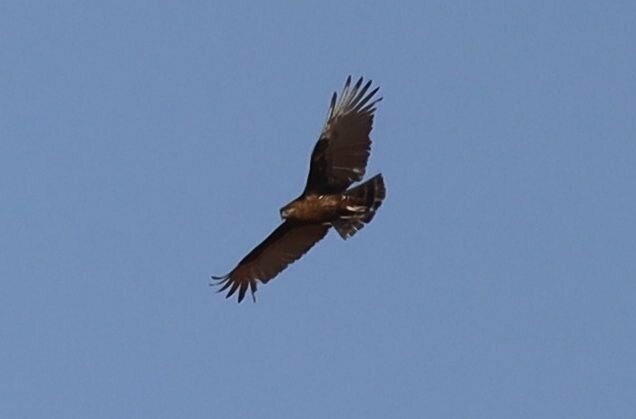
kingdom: Animalia
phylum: Chordata
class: Aves
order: Accipitriformes
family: Accipitridae
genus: Circaetus
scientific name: Circaetus cinereus
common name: Brown snake eagle
